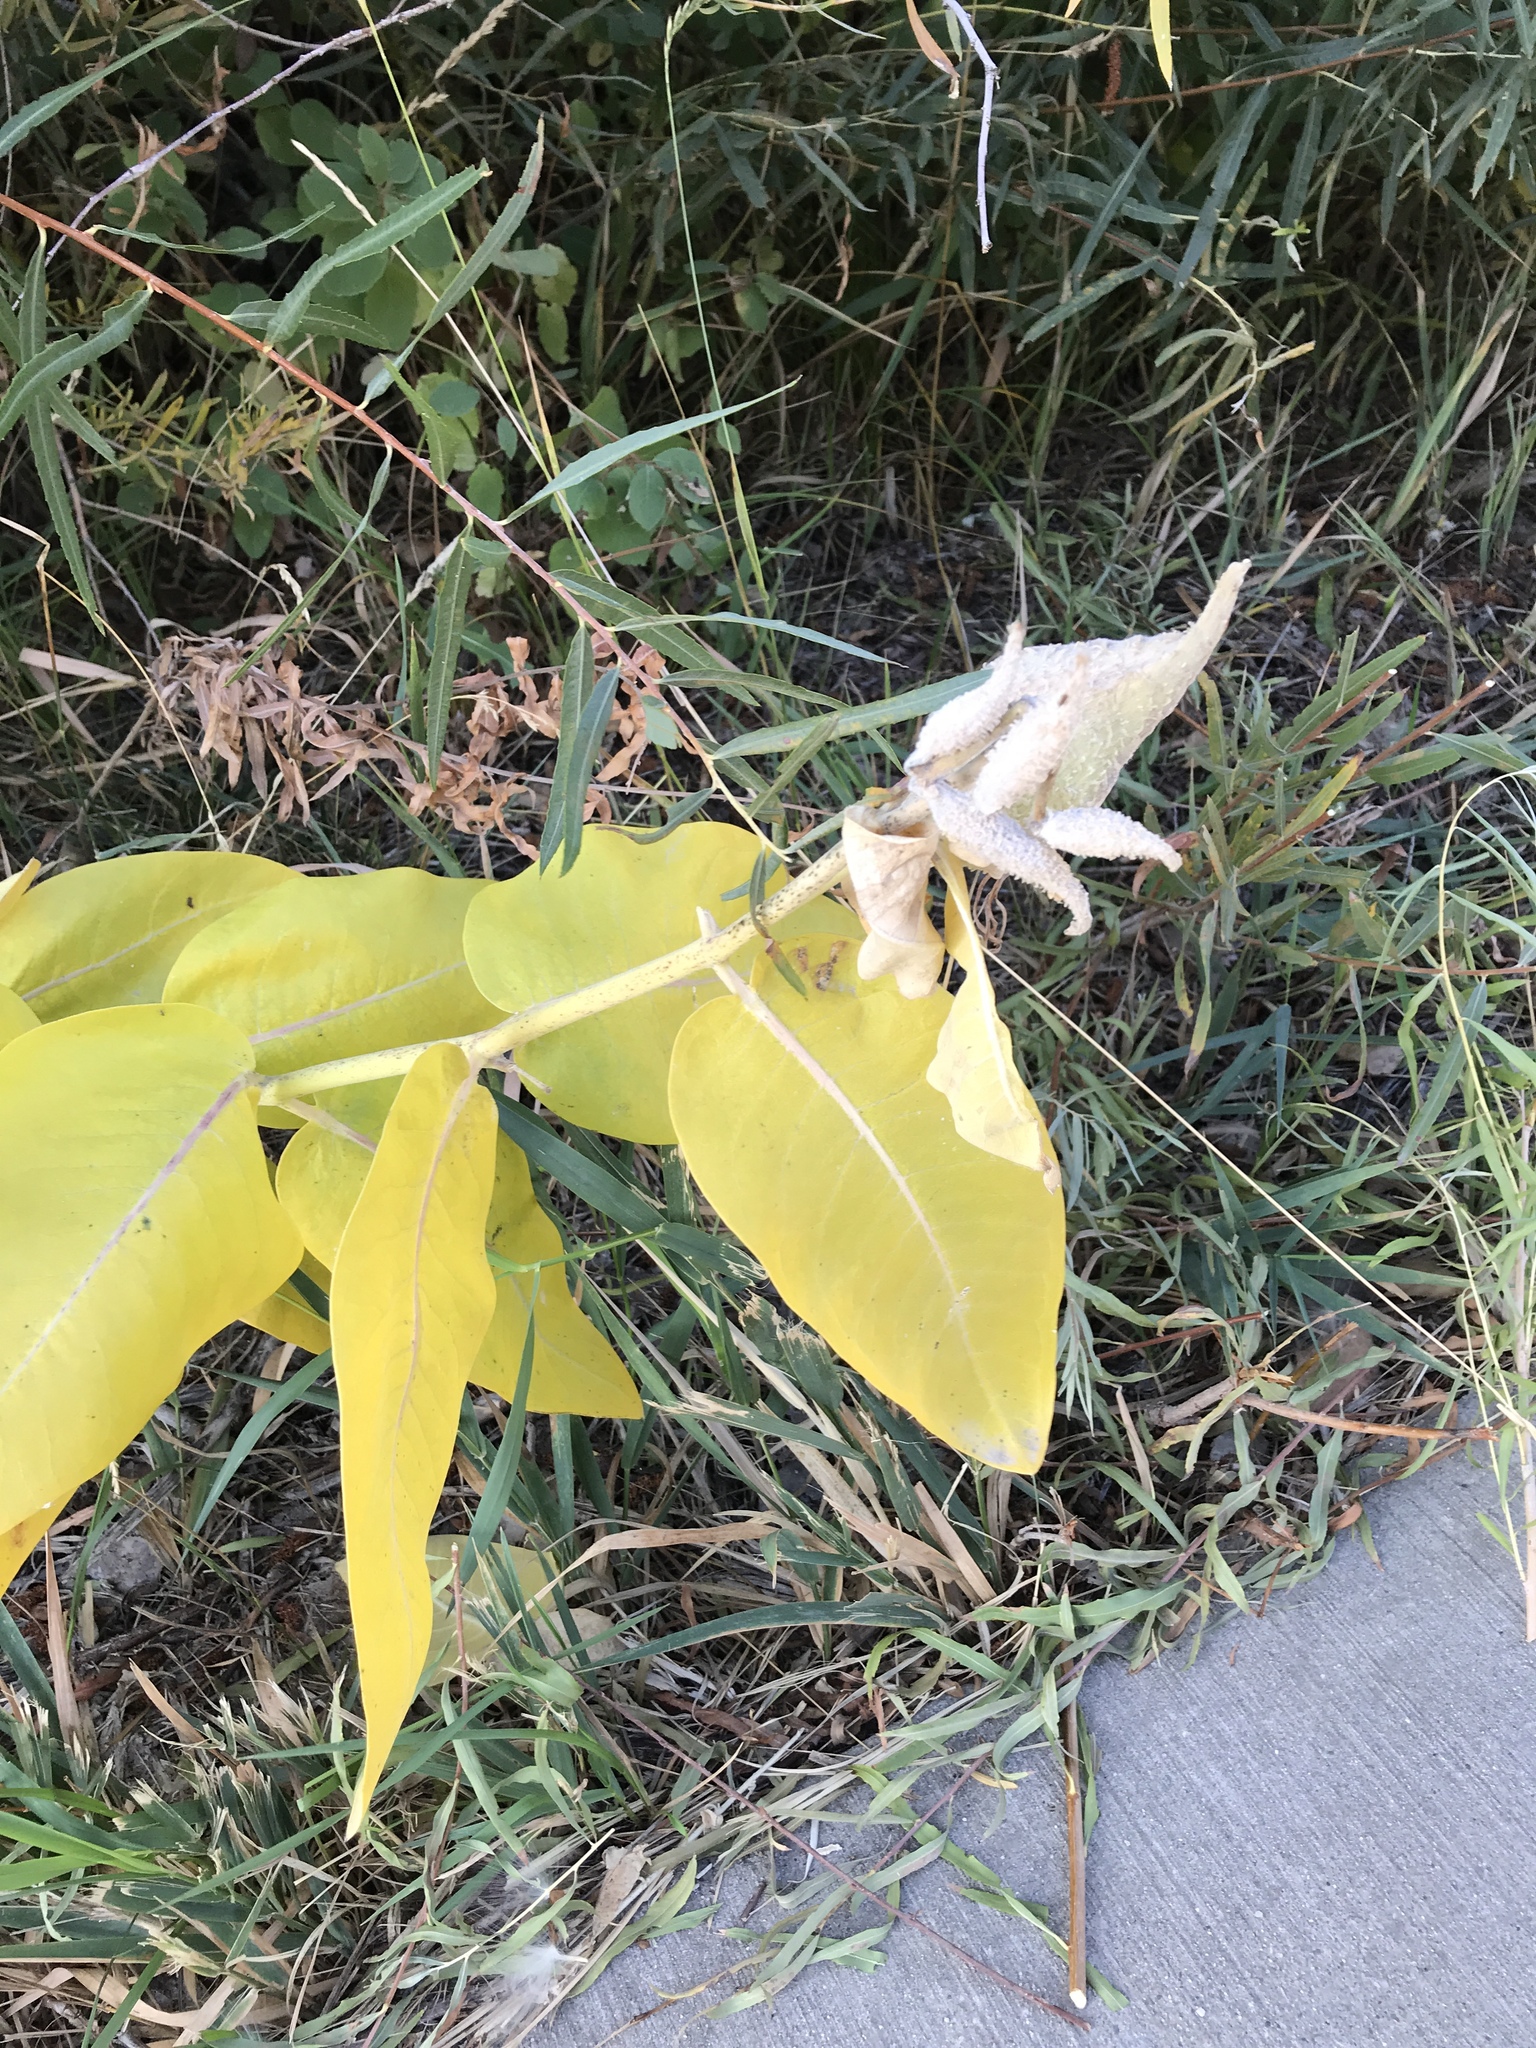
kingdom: Plantae
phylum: Tracheophyta
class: Magnoliopsida
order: Gentianales
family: Apocynaceae
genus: Asclepias
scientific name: Asclepias speciosa
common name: Showy milkweed
